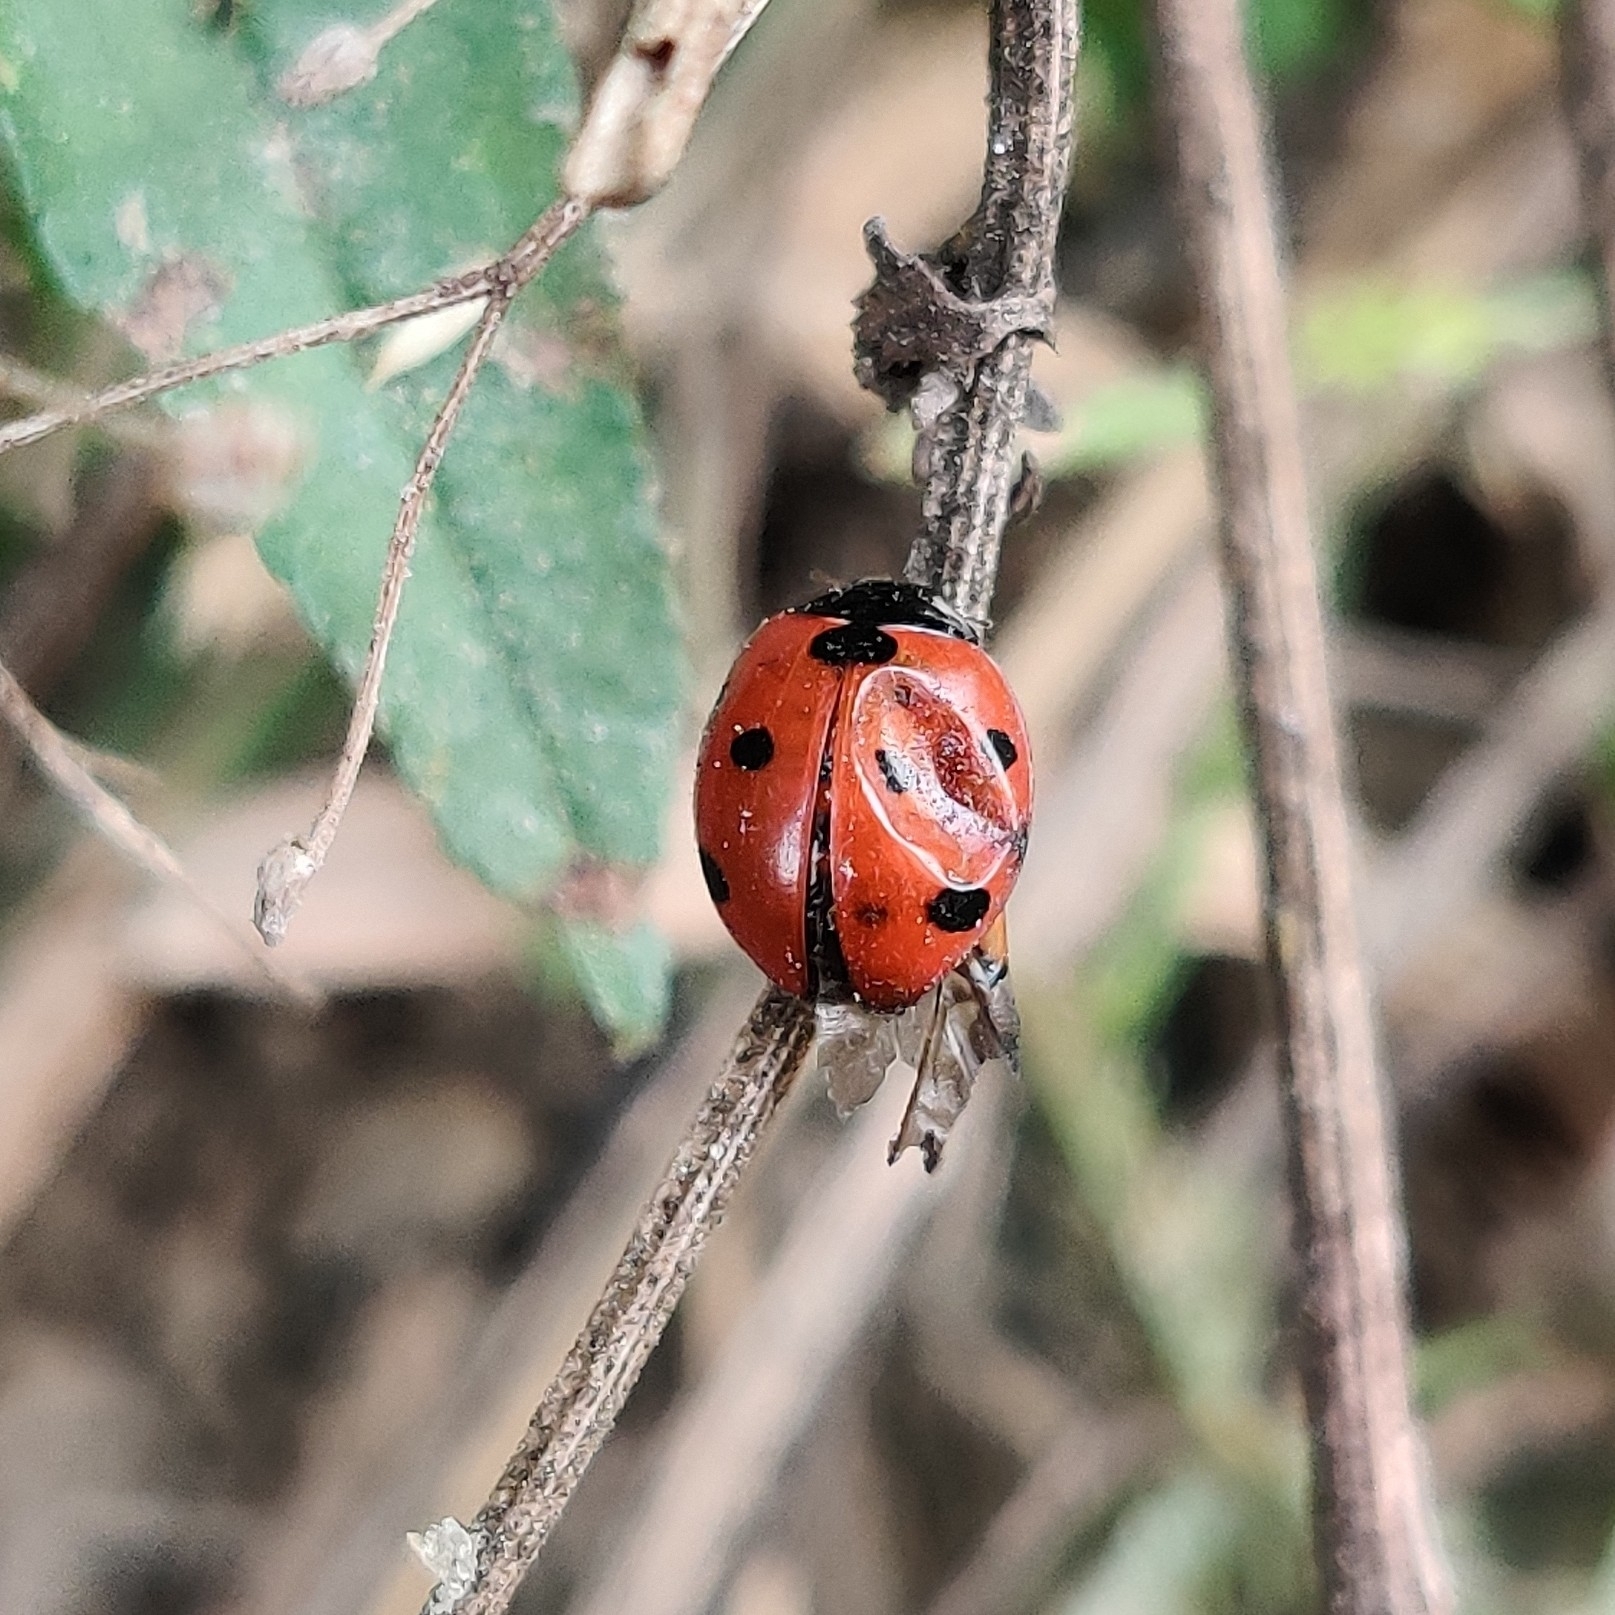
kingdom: Animalia
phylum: Arthropoda
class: Insecta
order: Coleoptera
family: Coccinellidae
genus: Coccinella
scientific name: Coccinella septempunctata
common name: Sevenspotted lady beetle
